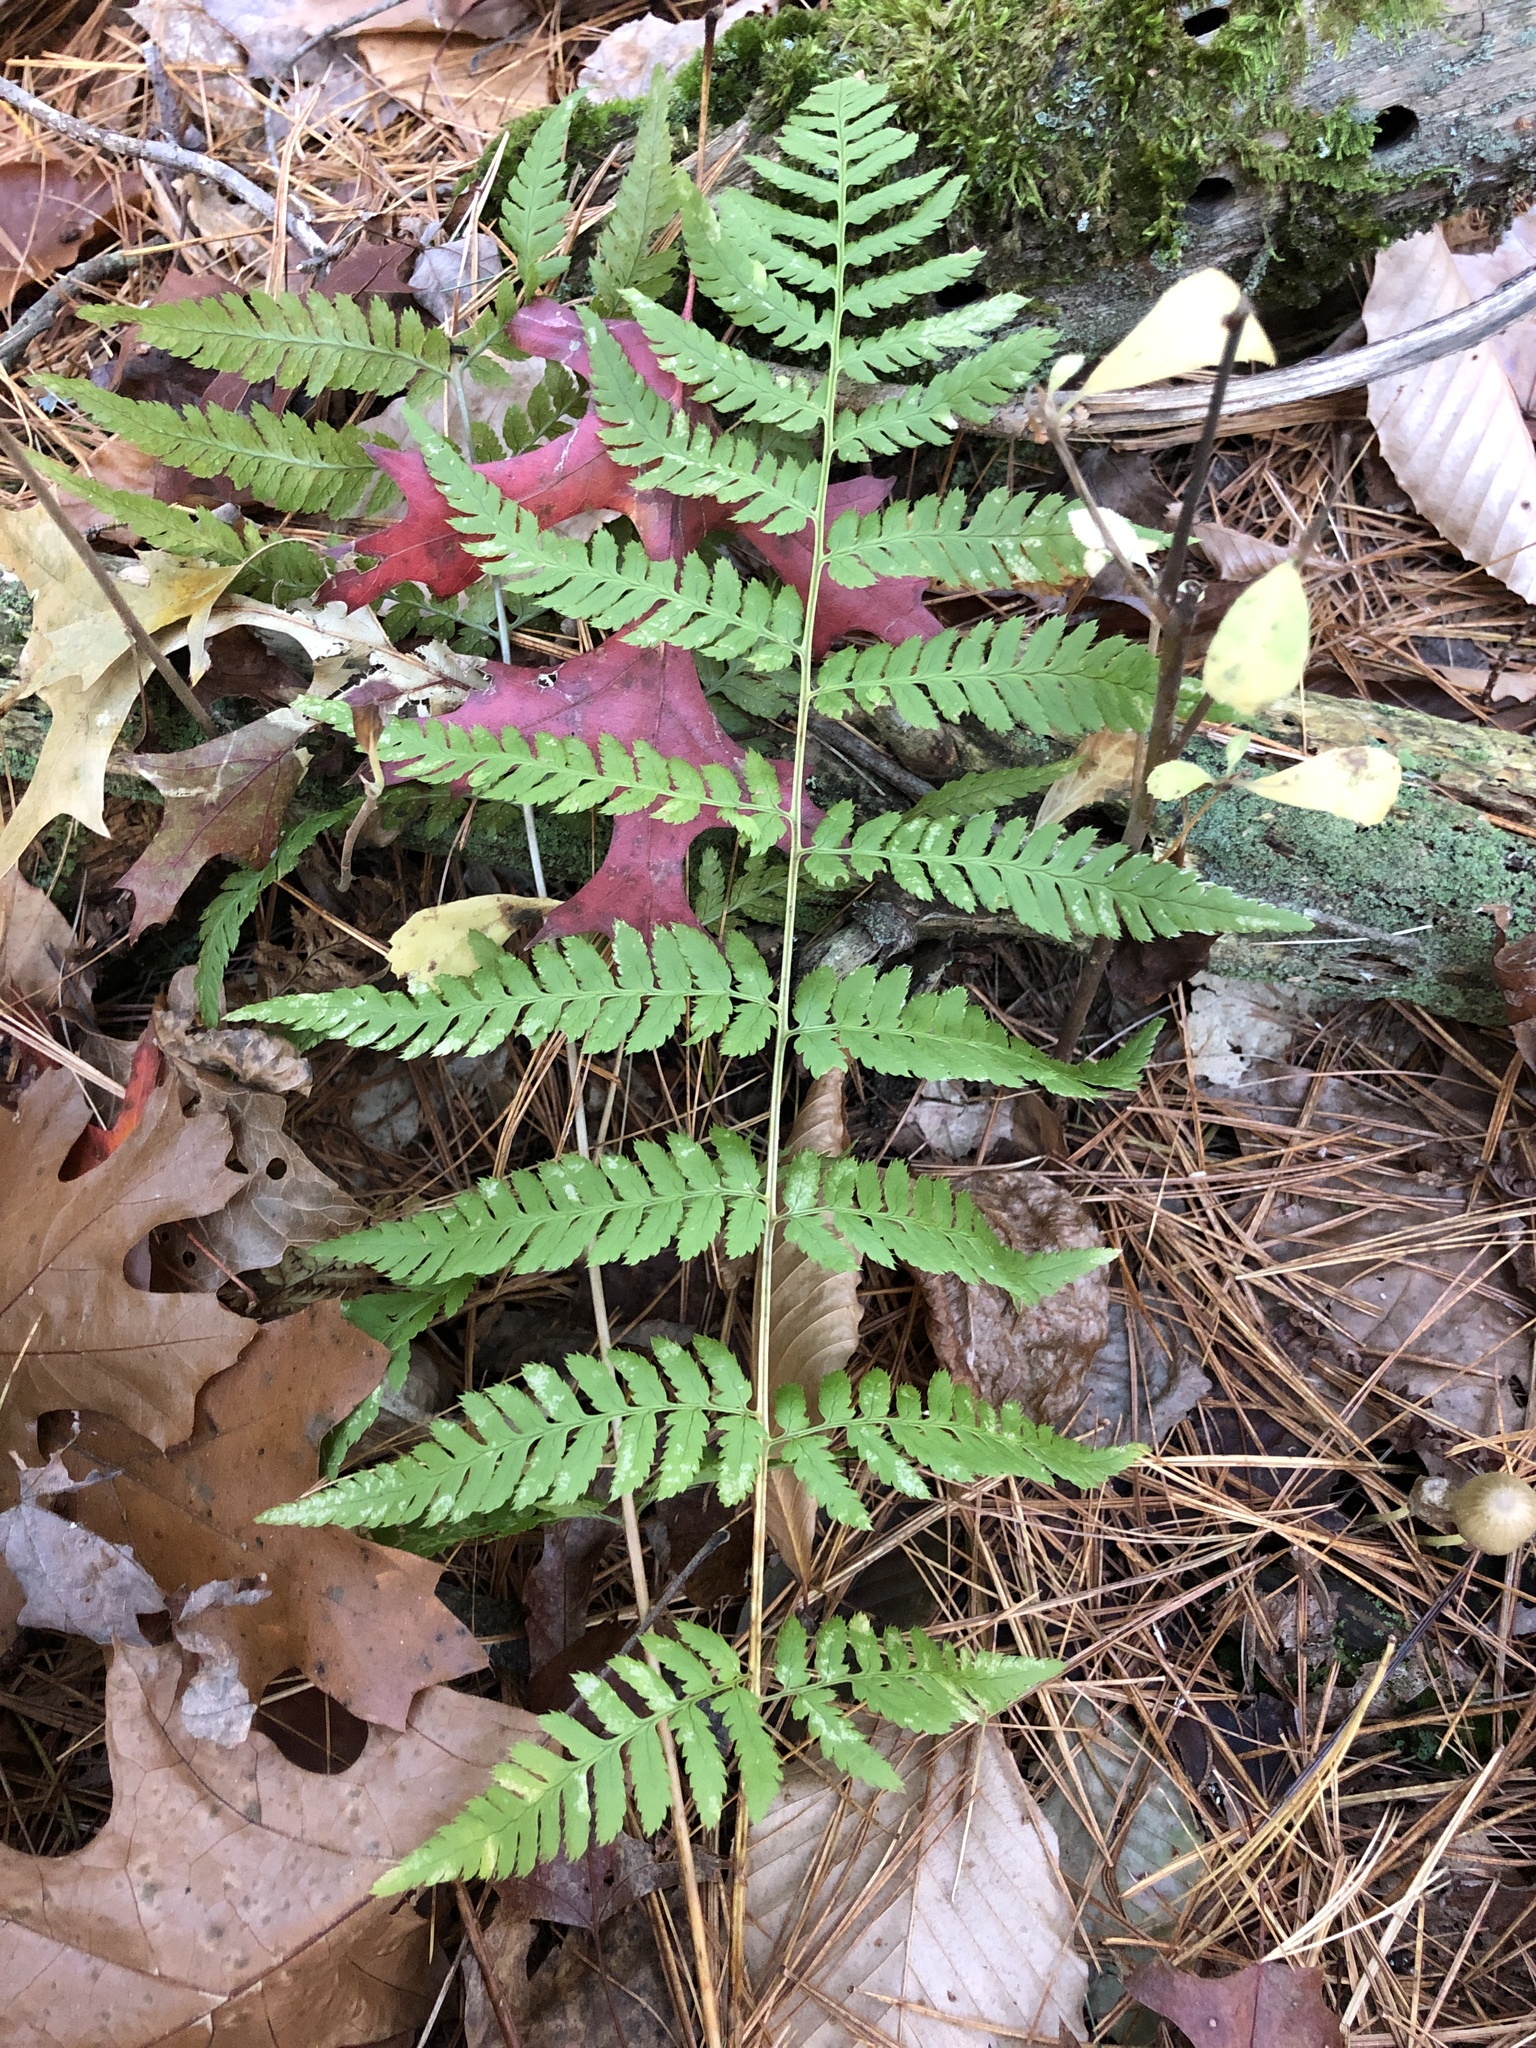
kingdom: Plantae
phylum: Tracheophyta
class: Polypodiopsida
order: Polypodiales
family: Dryopteridaceae
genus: Dryopteris
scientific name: Dryopteris carthusiana
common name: Narrow buckler-fern
